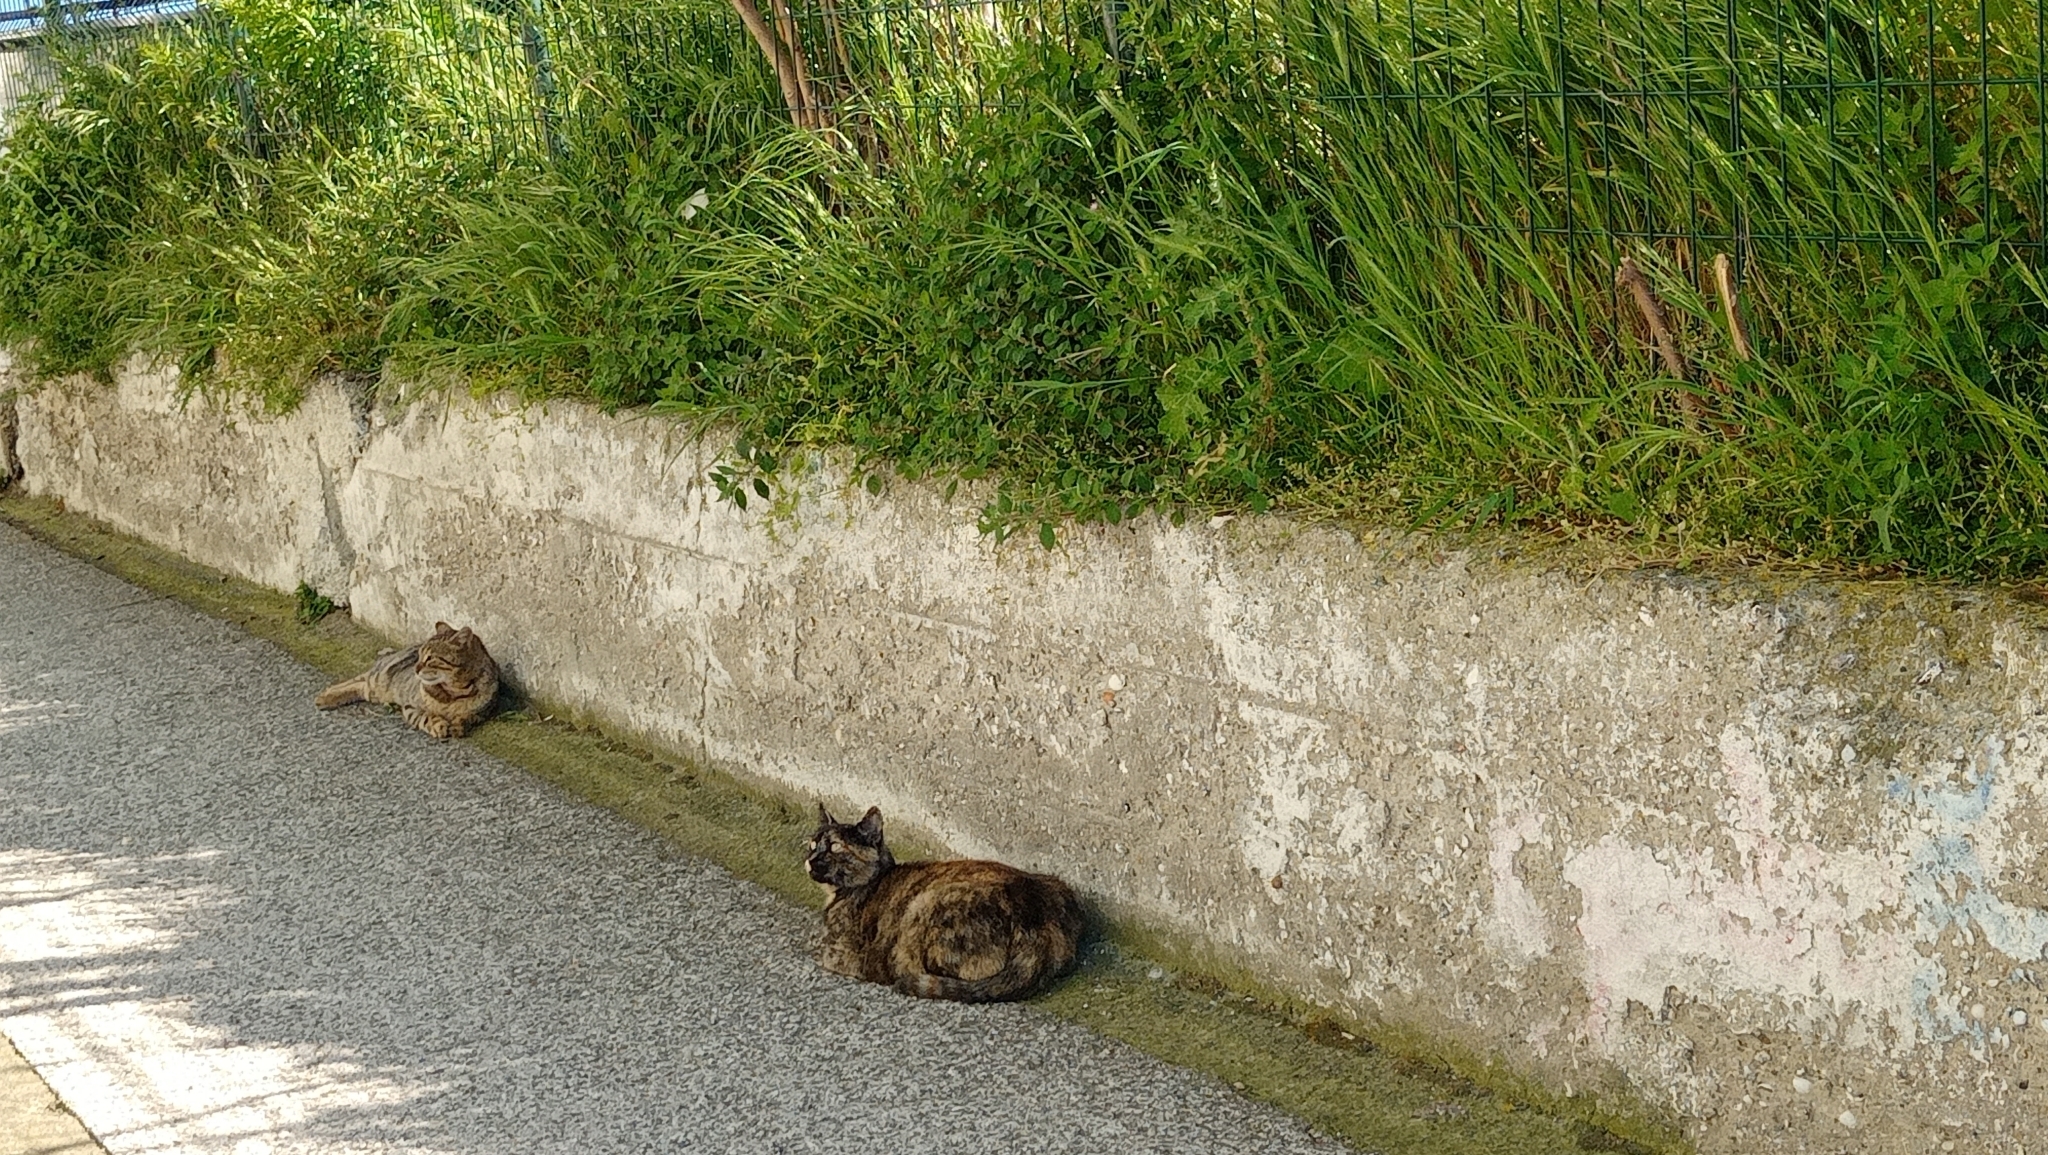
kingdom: Animalia
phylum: Chordata
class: Mammalia
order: Carnivora
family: Felidae
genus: Felis
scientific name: Felis catus
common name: Domestic cat
